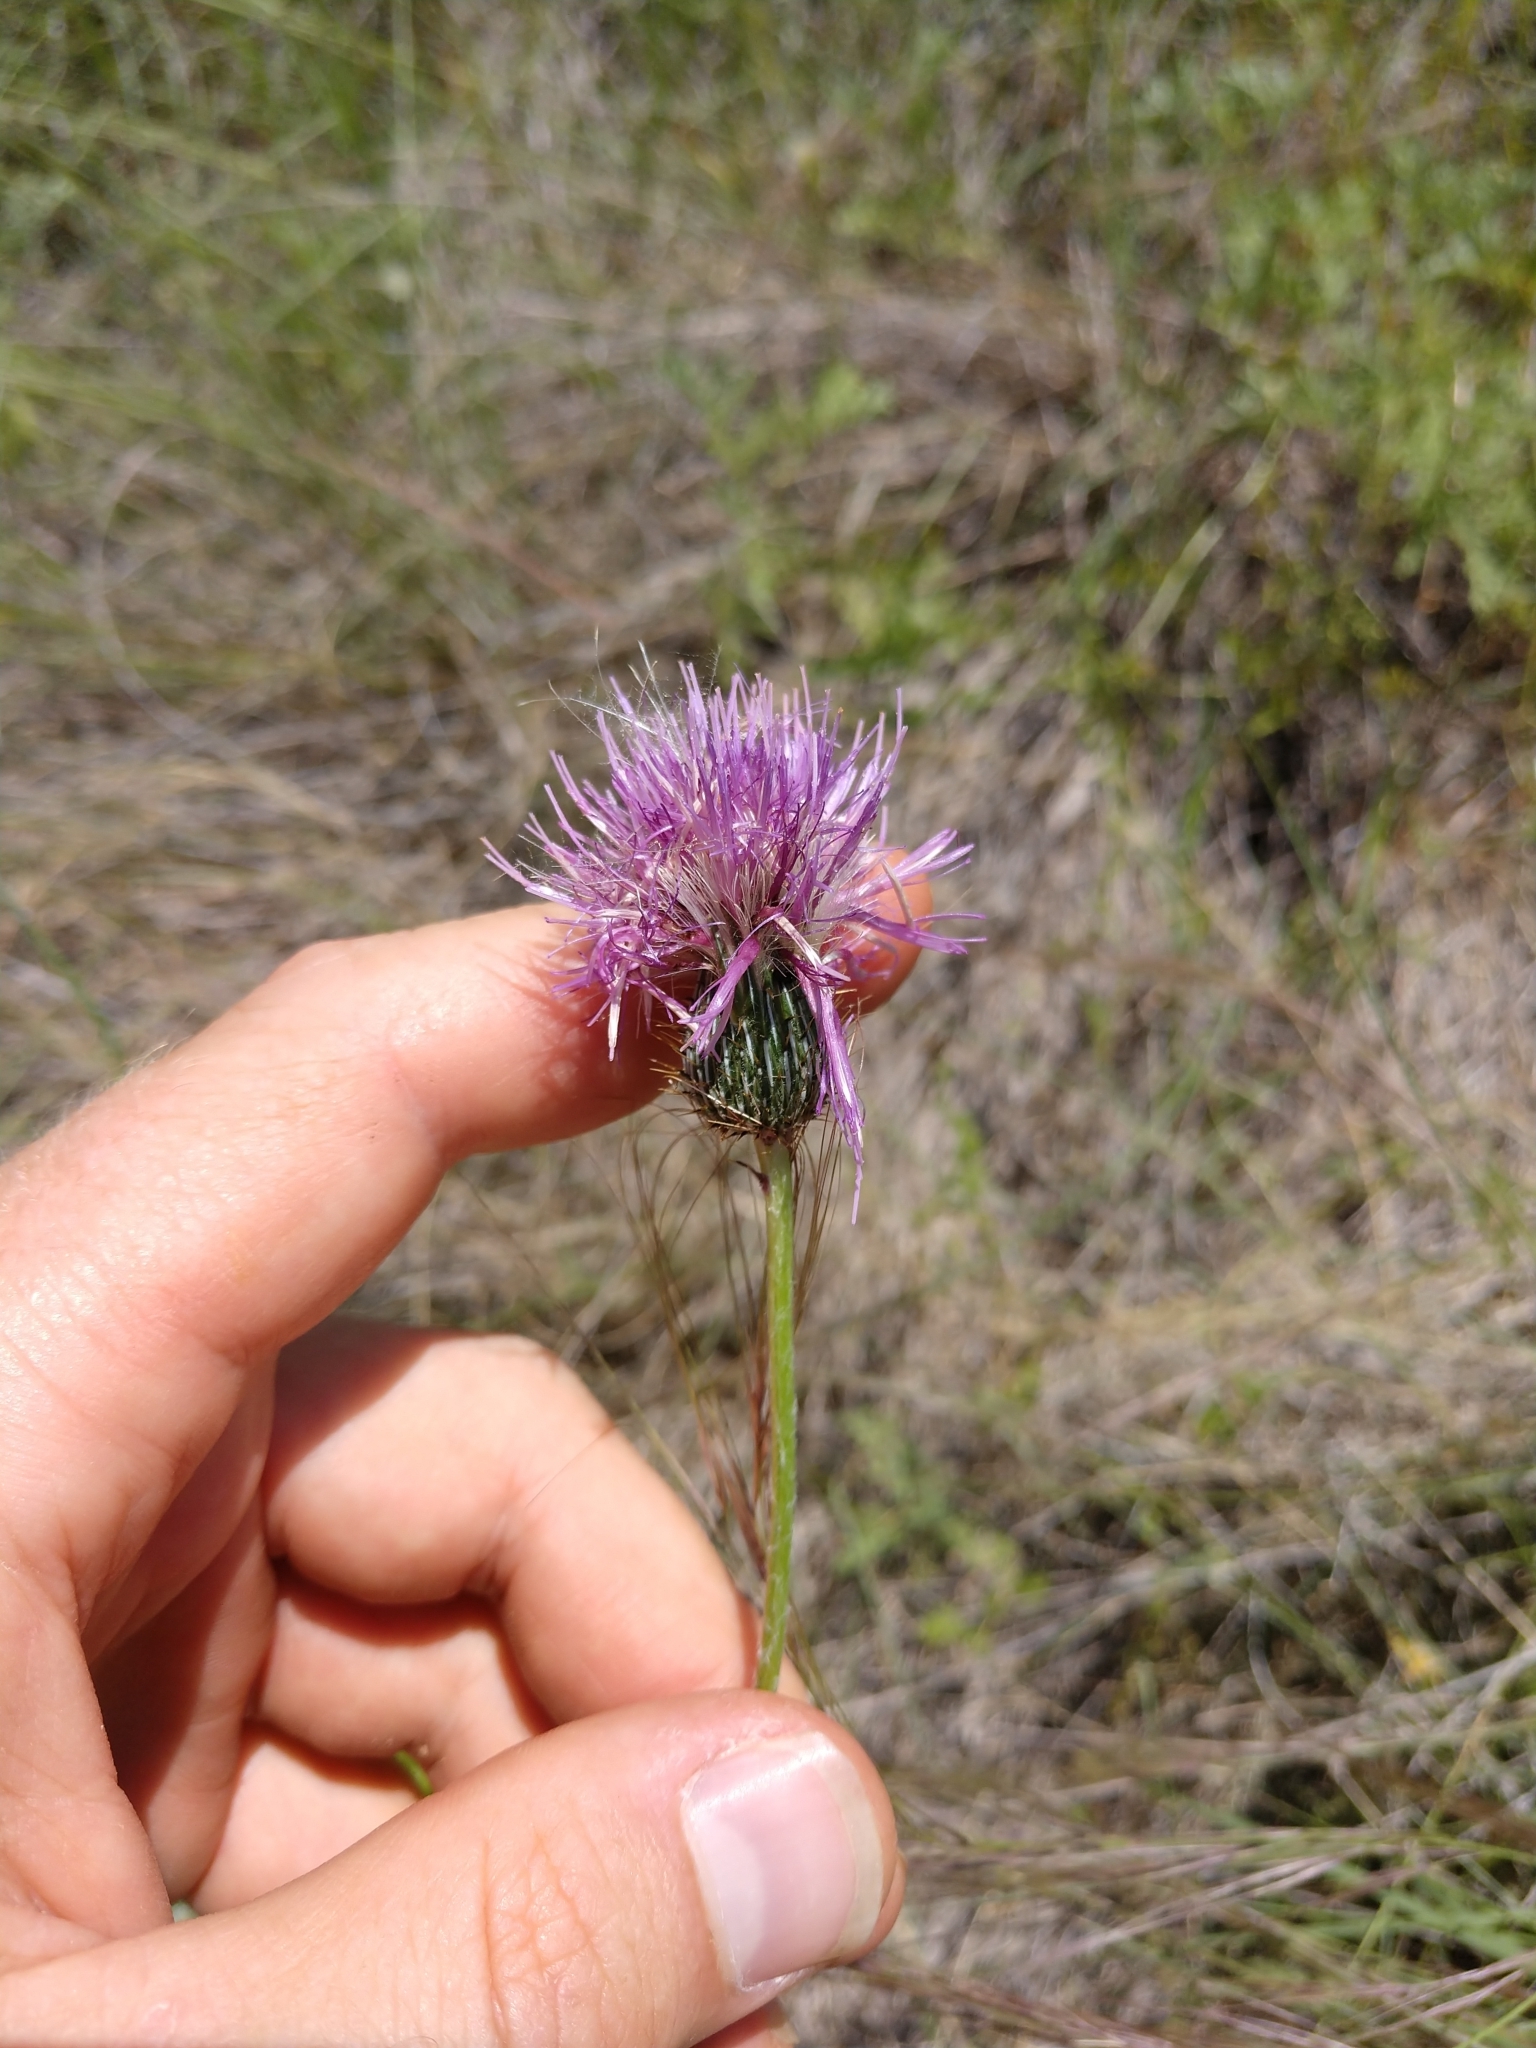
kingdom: Plantae
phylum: Tracheophyta
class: Magnoliopsida
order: Asterales
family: Asteraceae
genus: Cirsium
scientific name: Cirsium texanum
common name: Texas purple thistle
